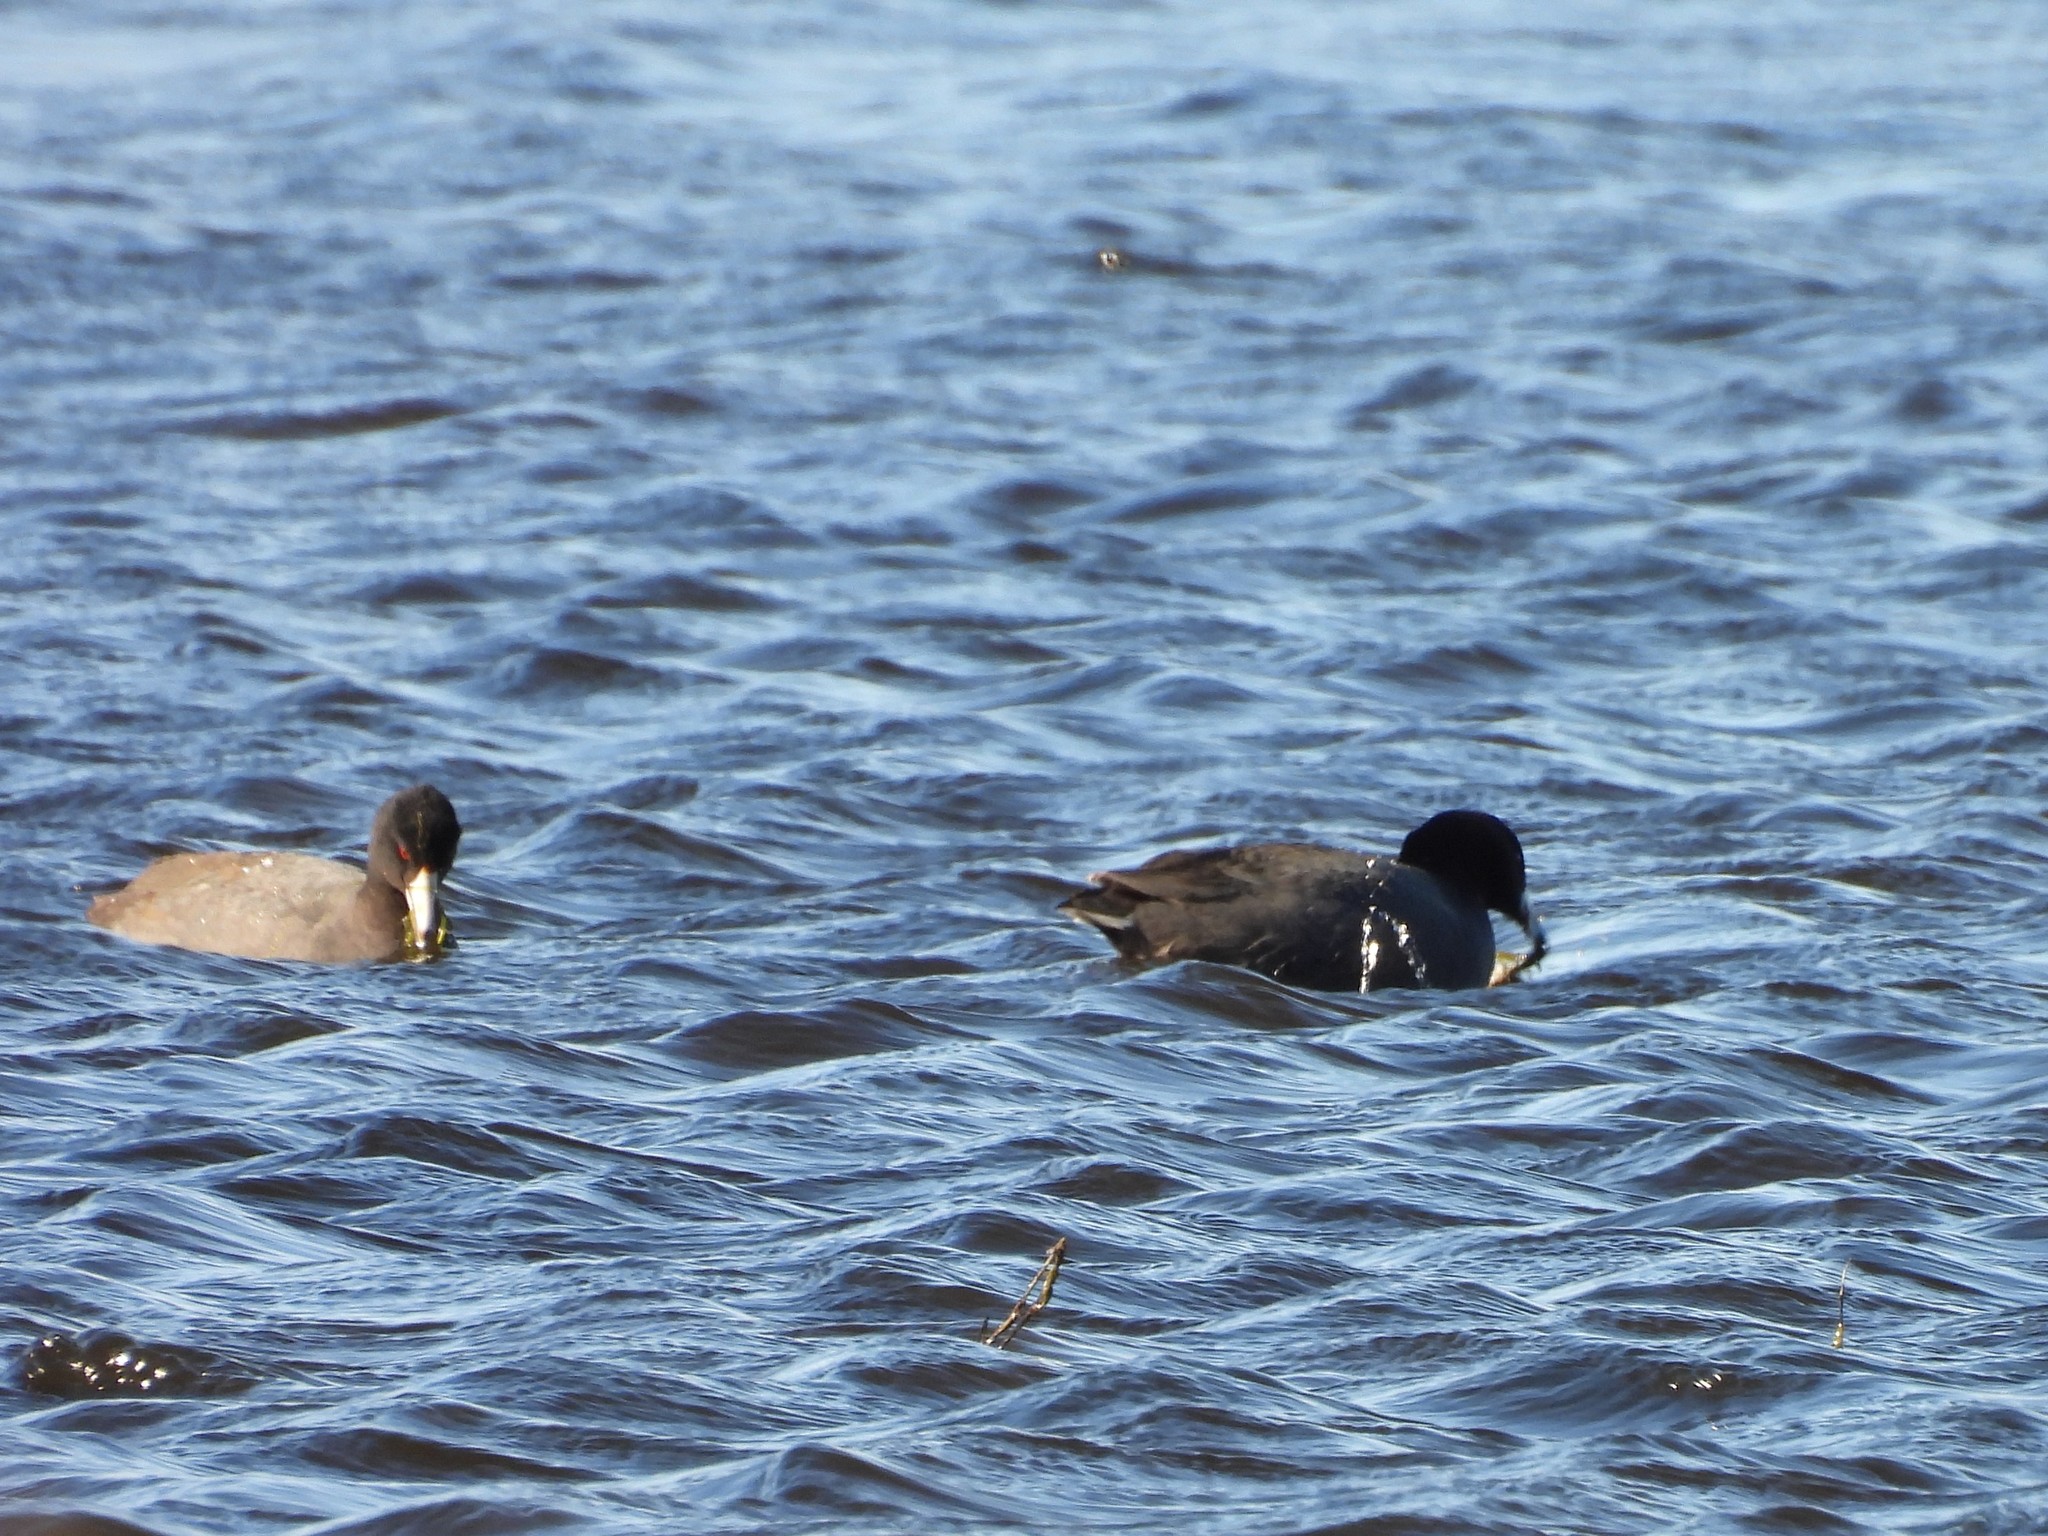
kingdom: Animalia
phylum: Chordata
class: Aves
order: Gruiformes
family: Rallidae
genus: Fulica
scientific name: Fulica americana
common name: American coot
